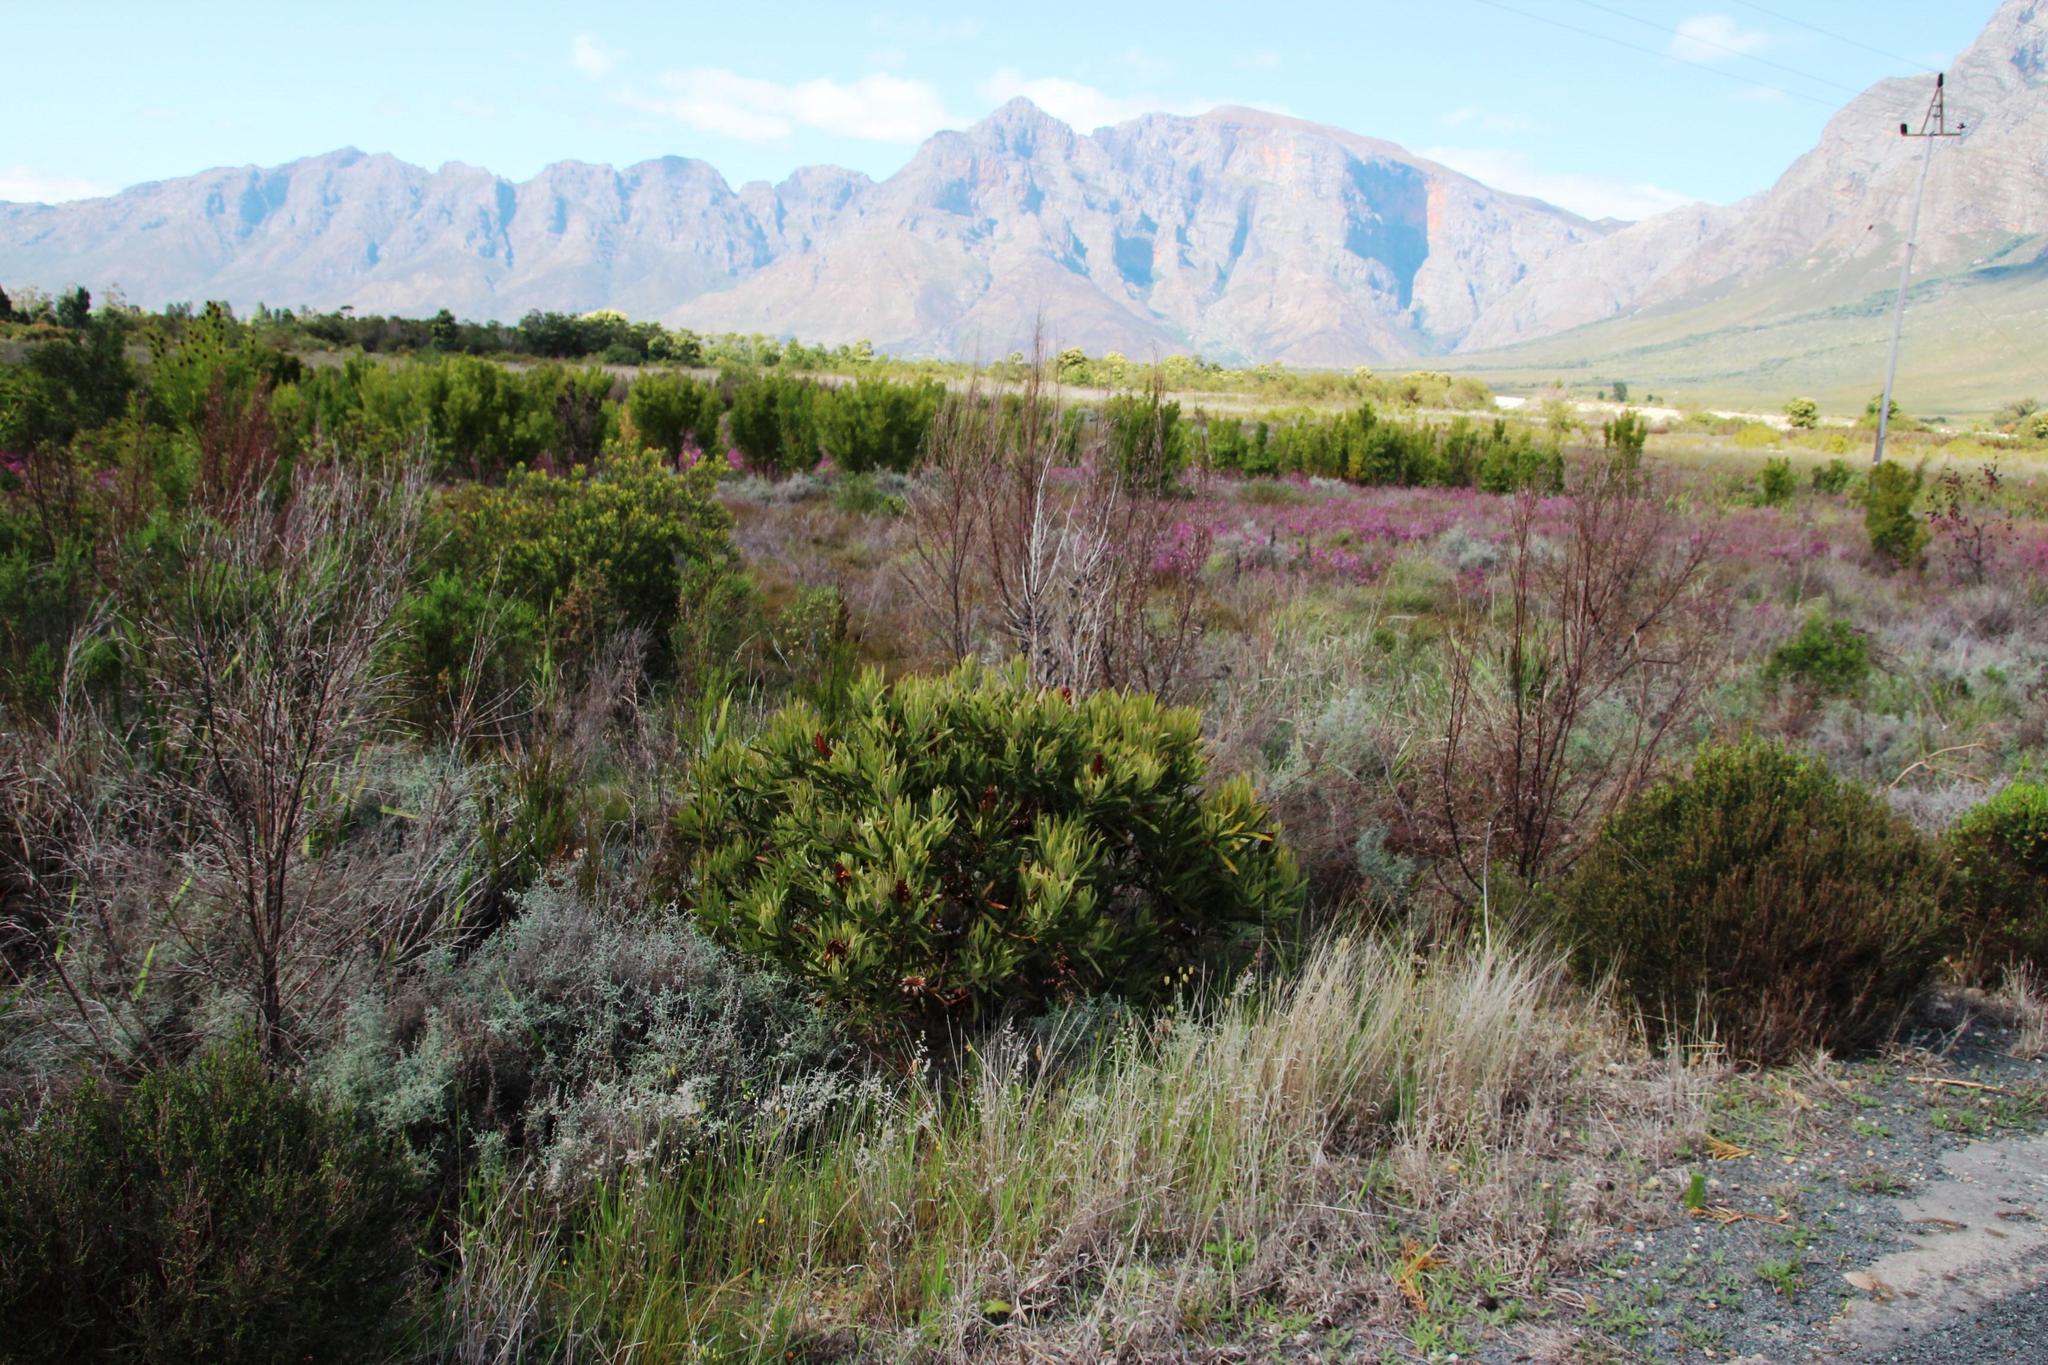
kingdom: Plantae
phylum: Tracheophyta
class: Magnoliopsida
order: Proteales
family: Proteaceae
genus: Protea
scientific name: Protea burchellii
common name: Burchell's sugarbush
